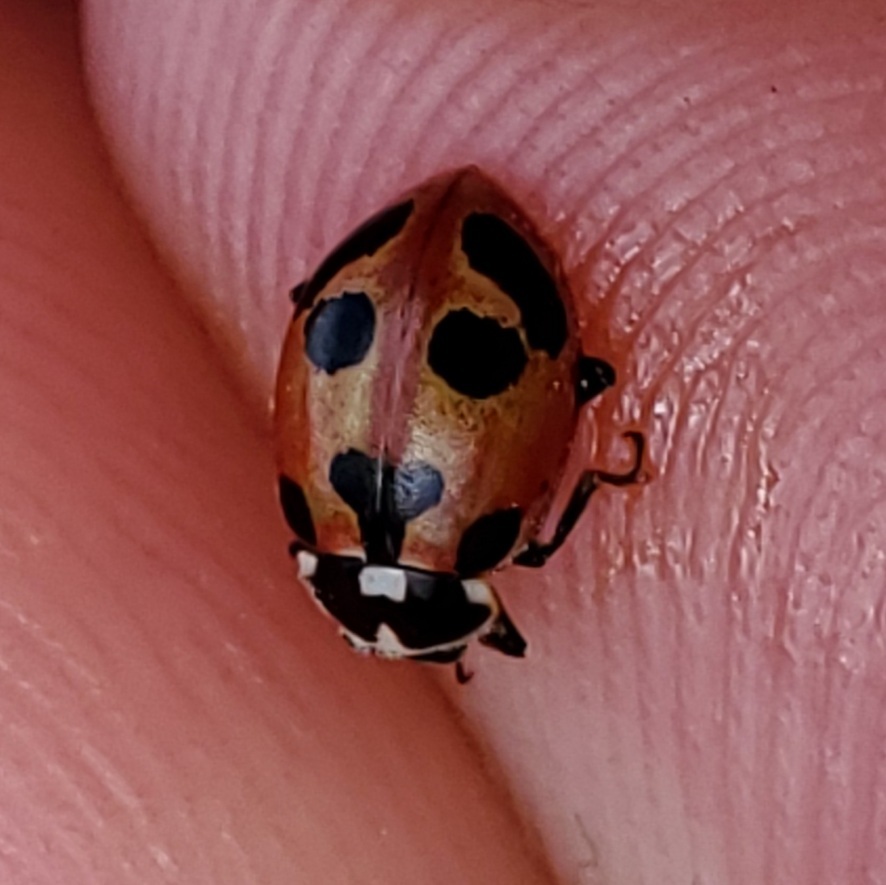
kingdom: Animalia
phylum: Arthropoda
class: Insecta
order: Coleoptera
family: Coccinellidae
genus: Hippodamia
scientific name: Hippodamia parenthesis
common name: Parenthesis lady beetle
